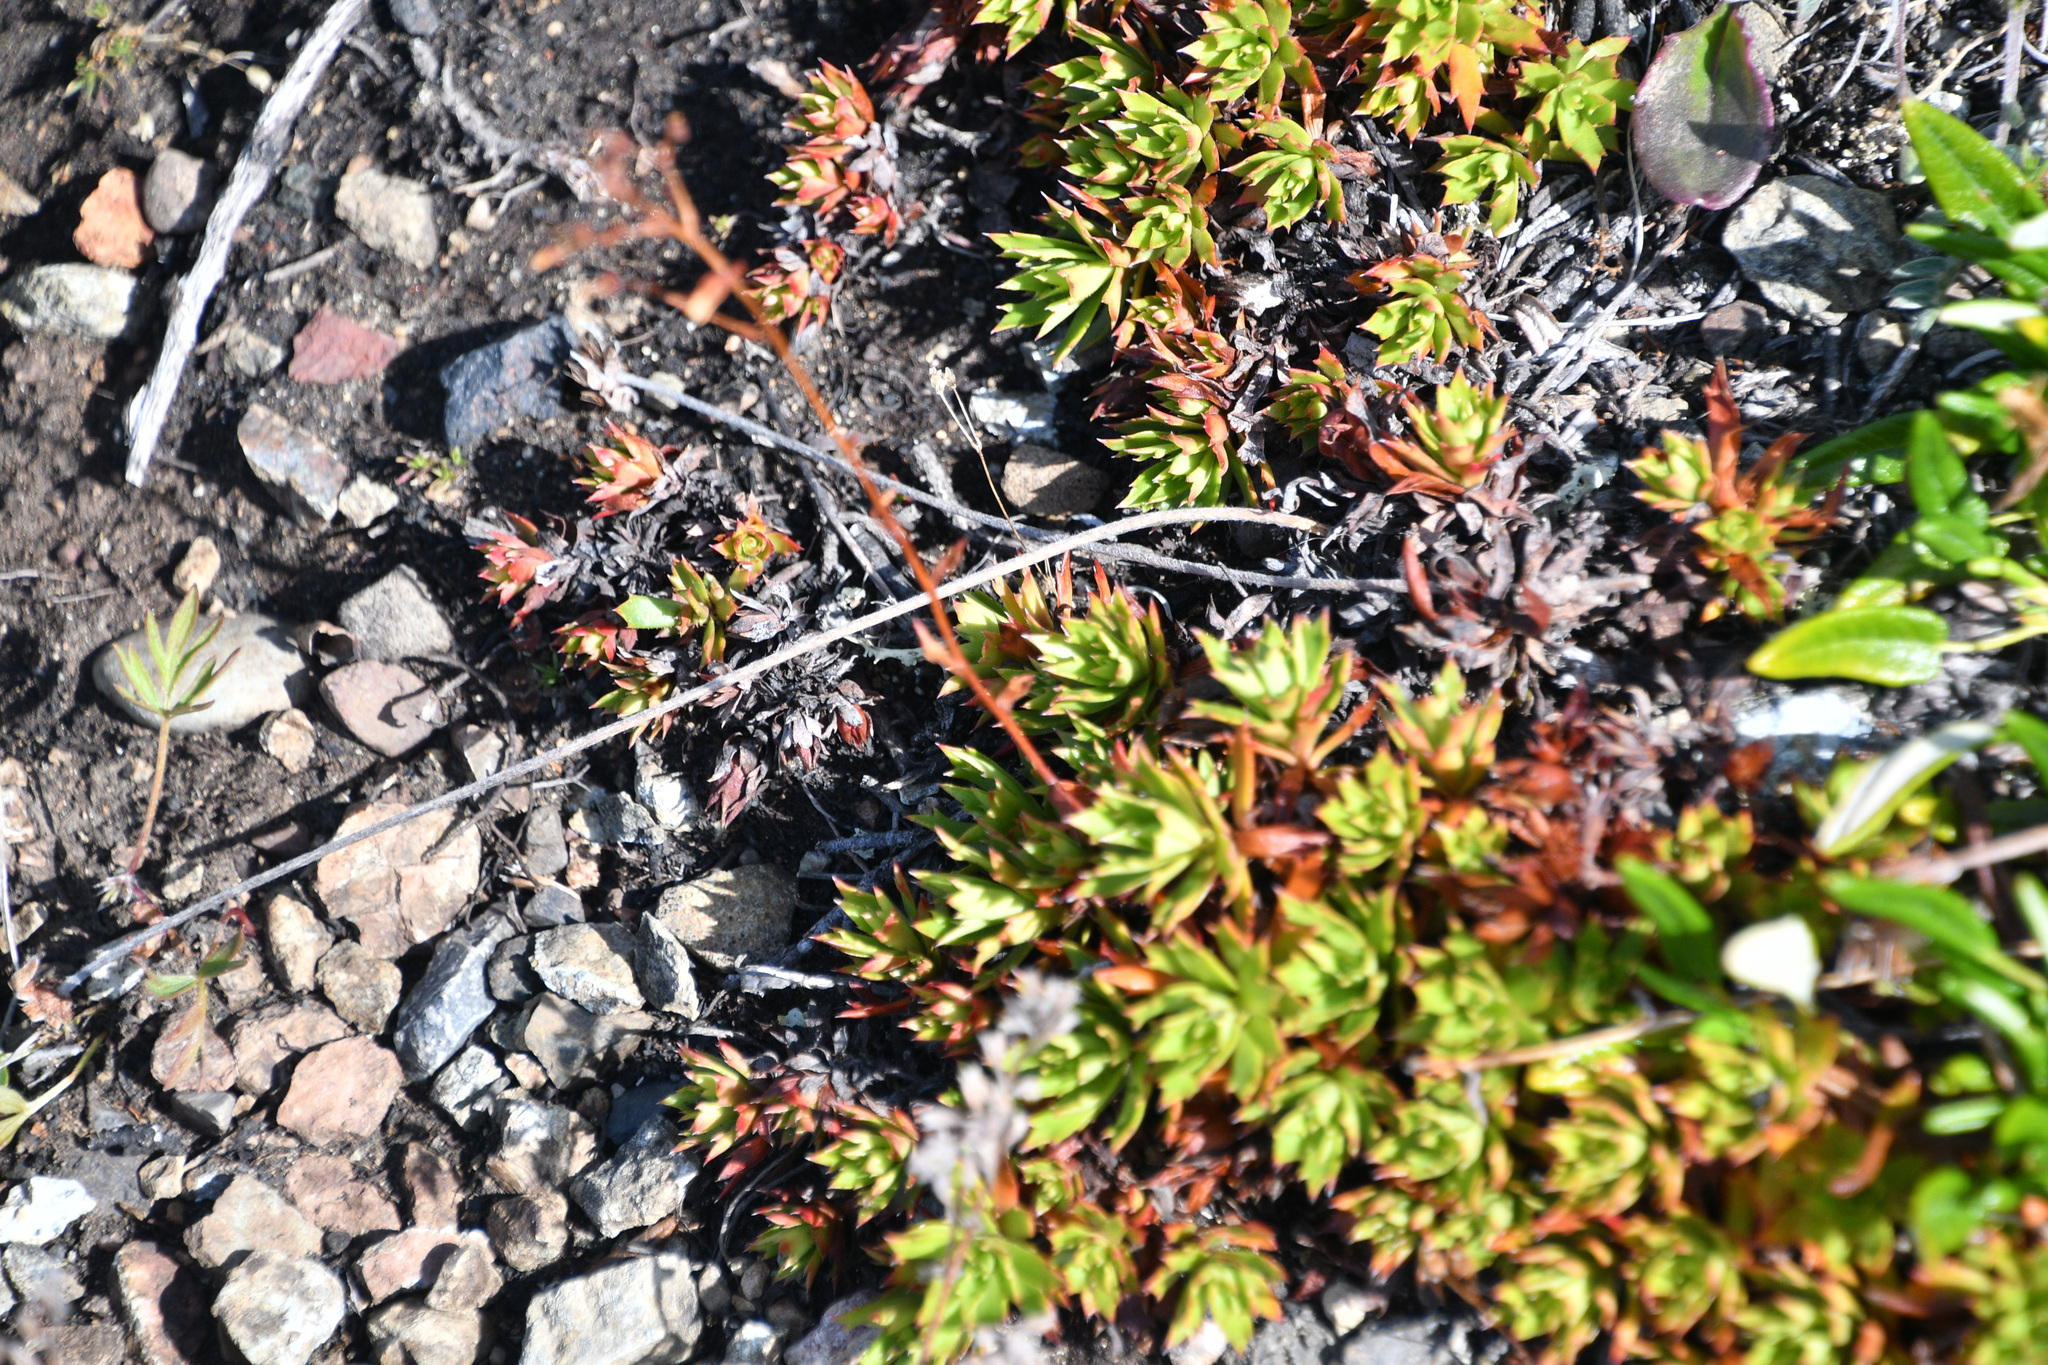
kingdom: Plantae
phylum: Tracheophyta
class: Magnoliopsida
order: Saxifragales
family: Saxifragaceae
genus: Saxifraga
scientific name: Saxifraga tricuspidata
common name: Prickly saxifrage
